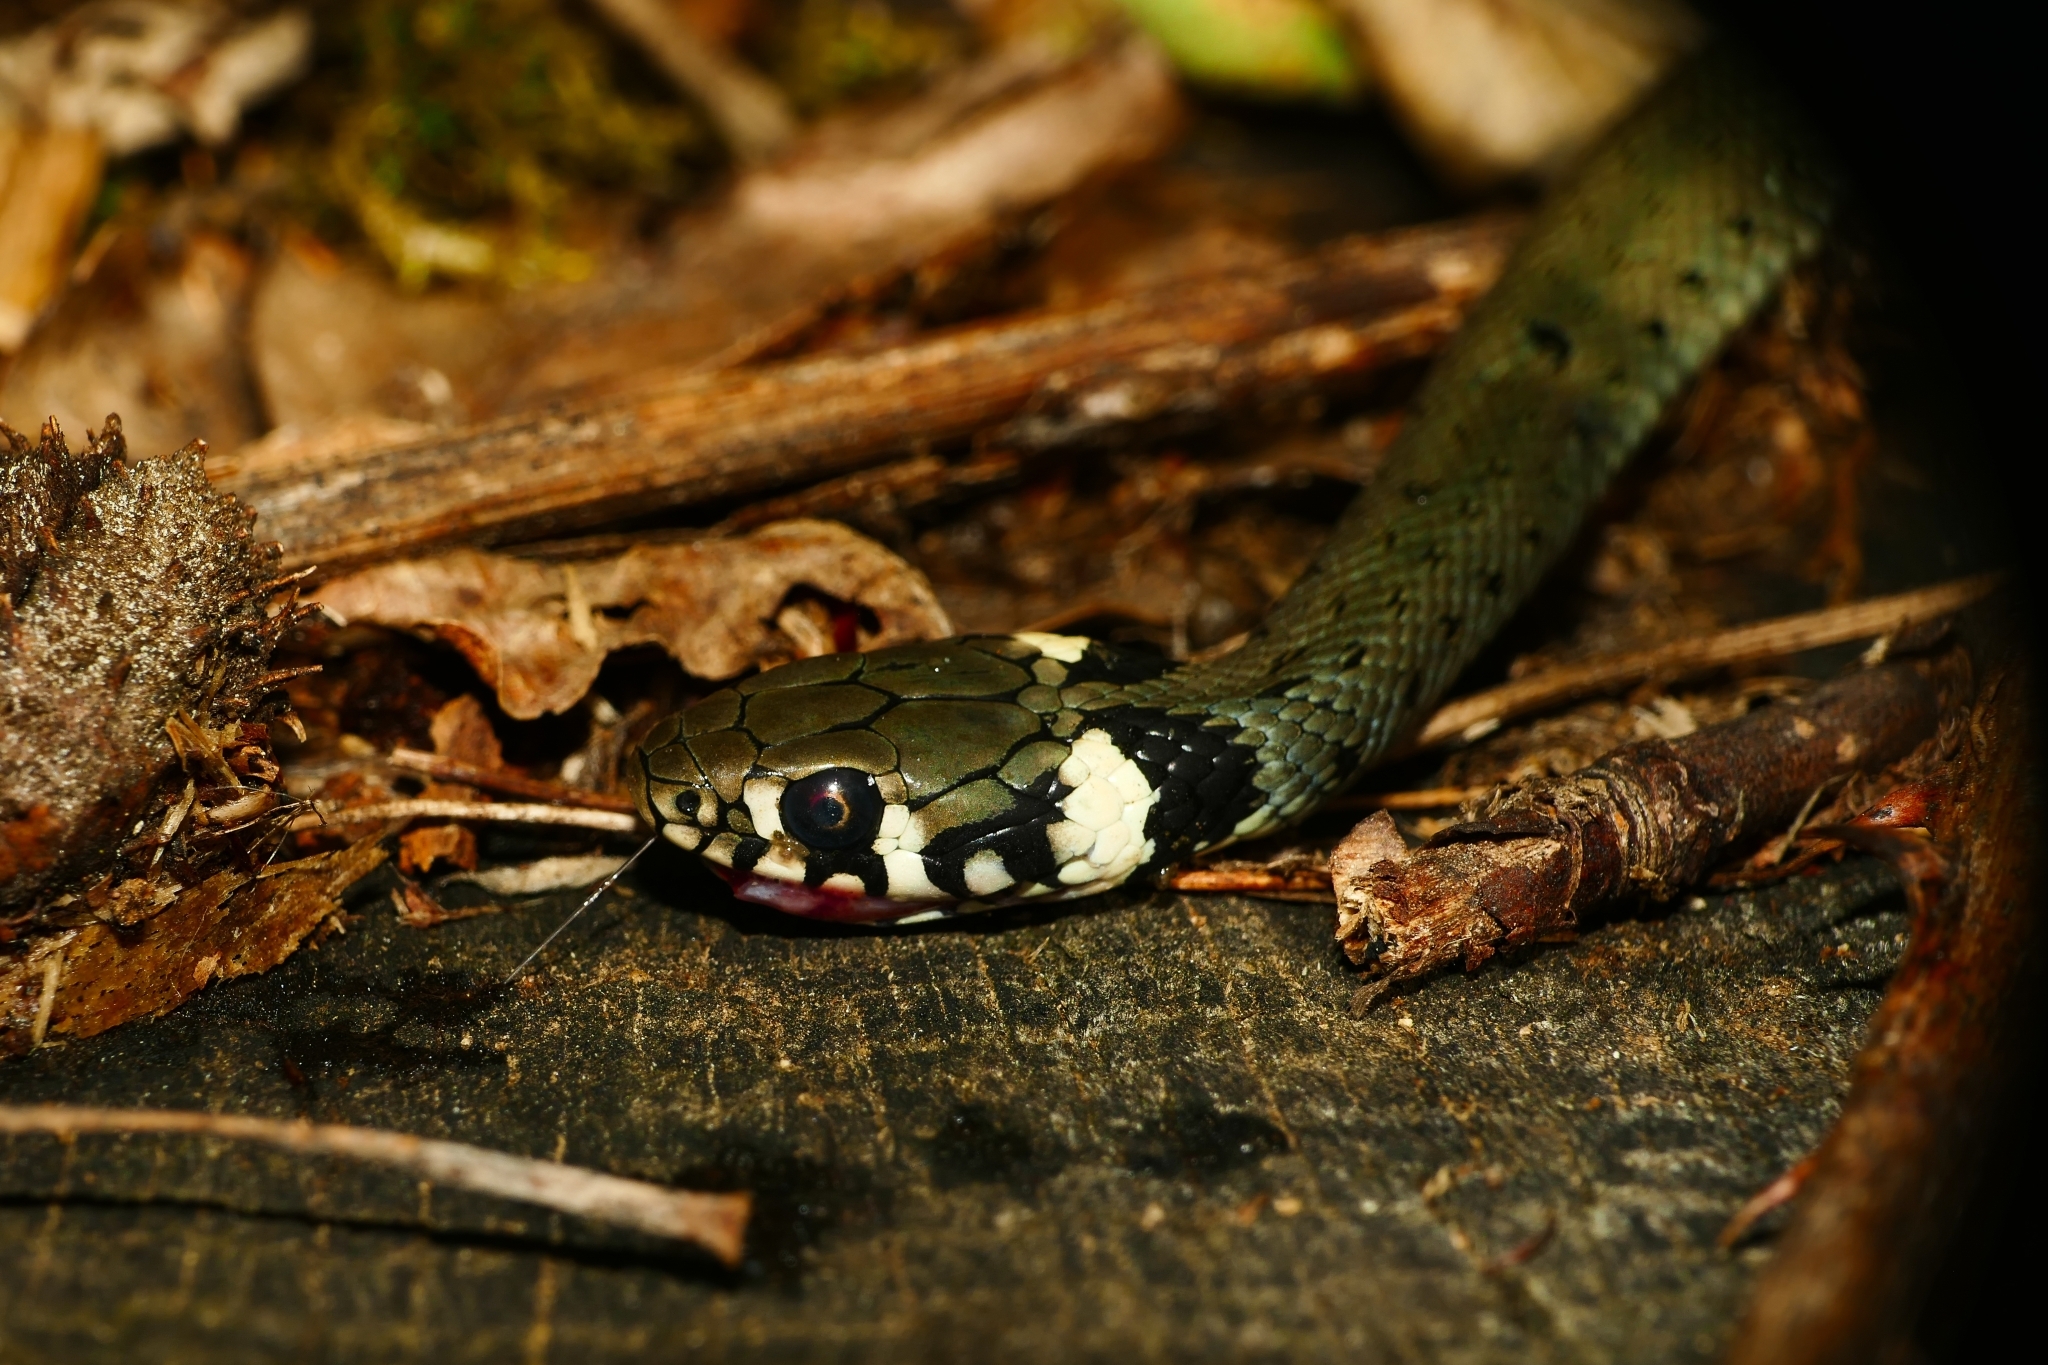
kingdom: Animalia
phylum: Chordata
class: Squamata
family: Colubridae
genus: Natrix
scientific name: Natrix natrix
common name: Grass snake
